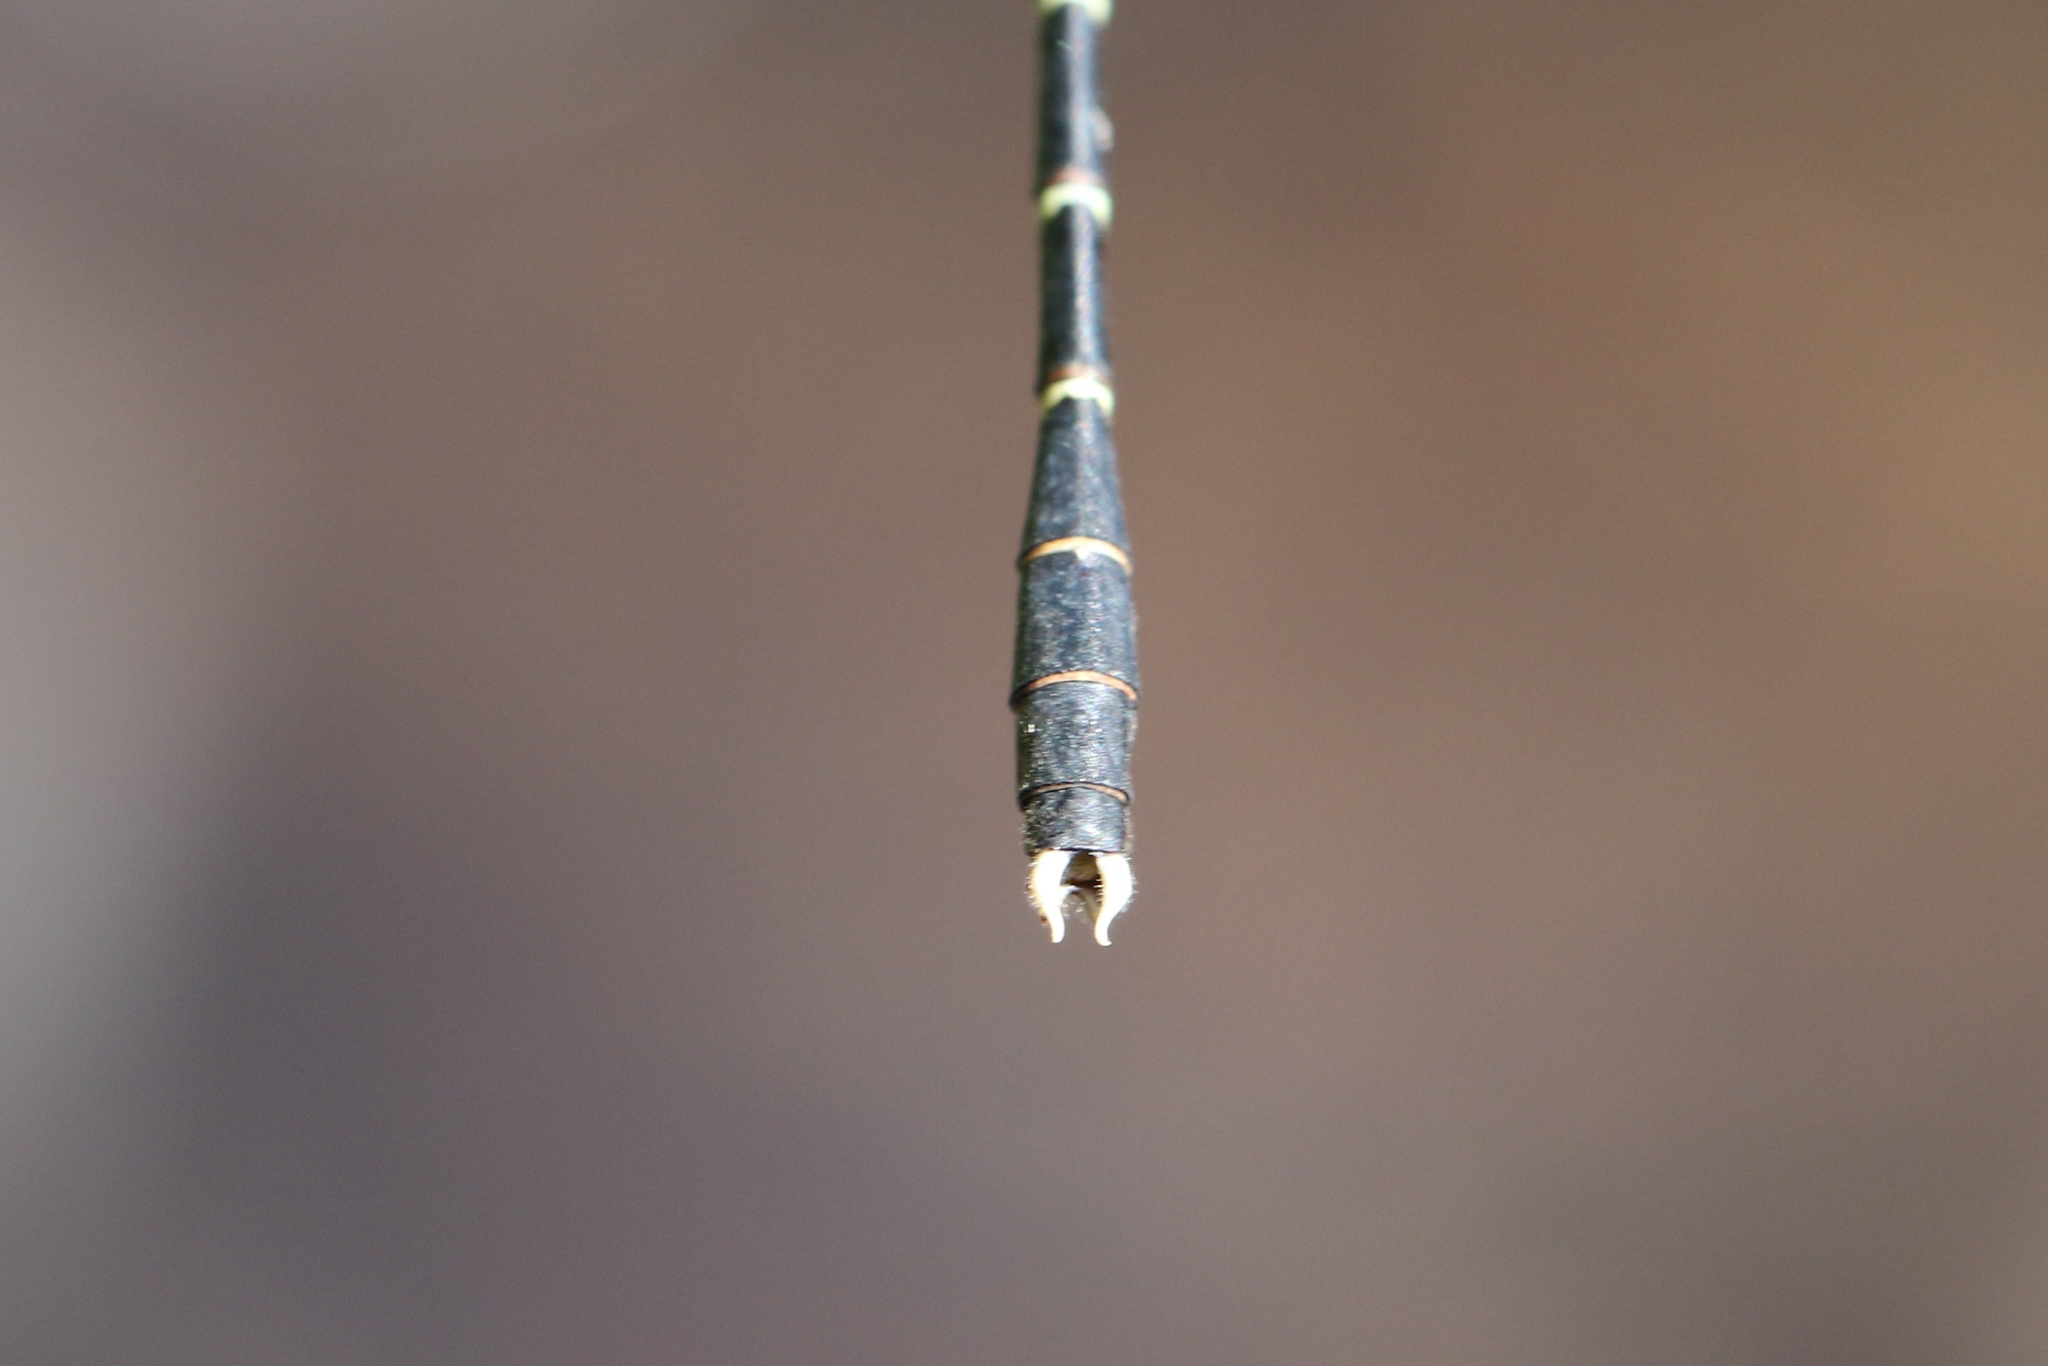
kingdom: Animalia
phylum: Arthropoda
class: Insecta
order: Odonata
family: Gomphidae
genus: Stylogomphus
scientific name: Stylogomphus albistylus
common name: Eastern least clubtail
